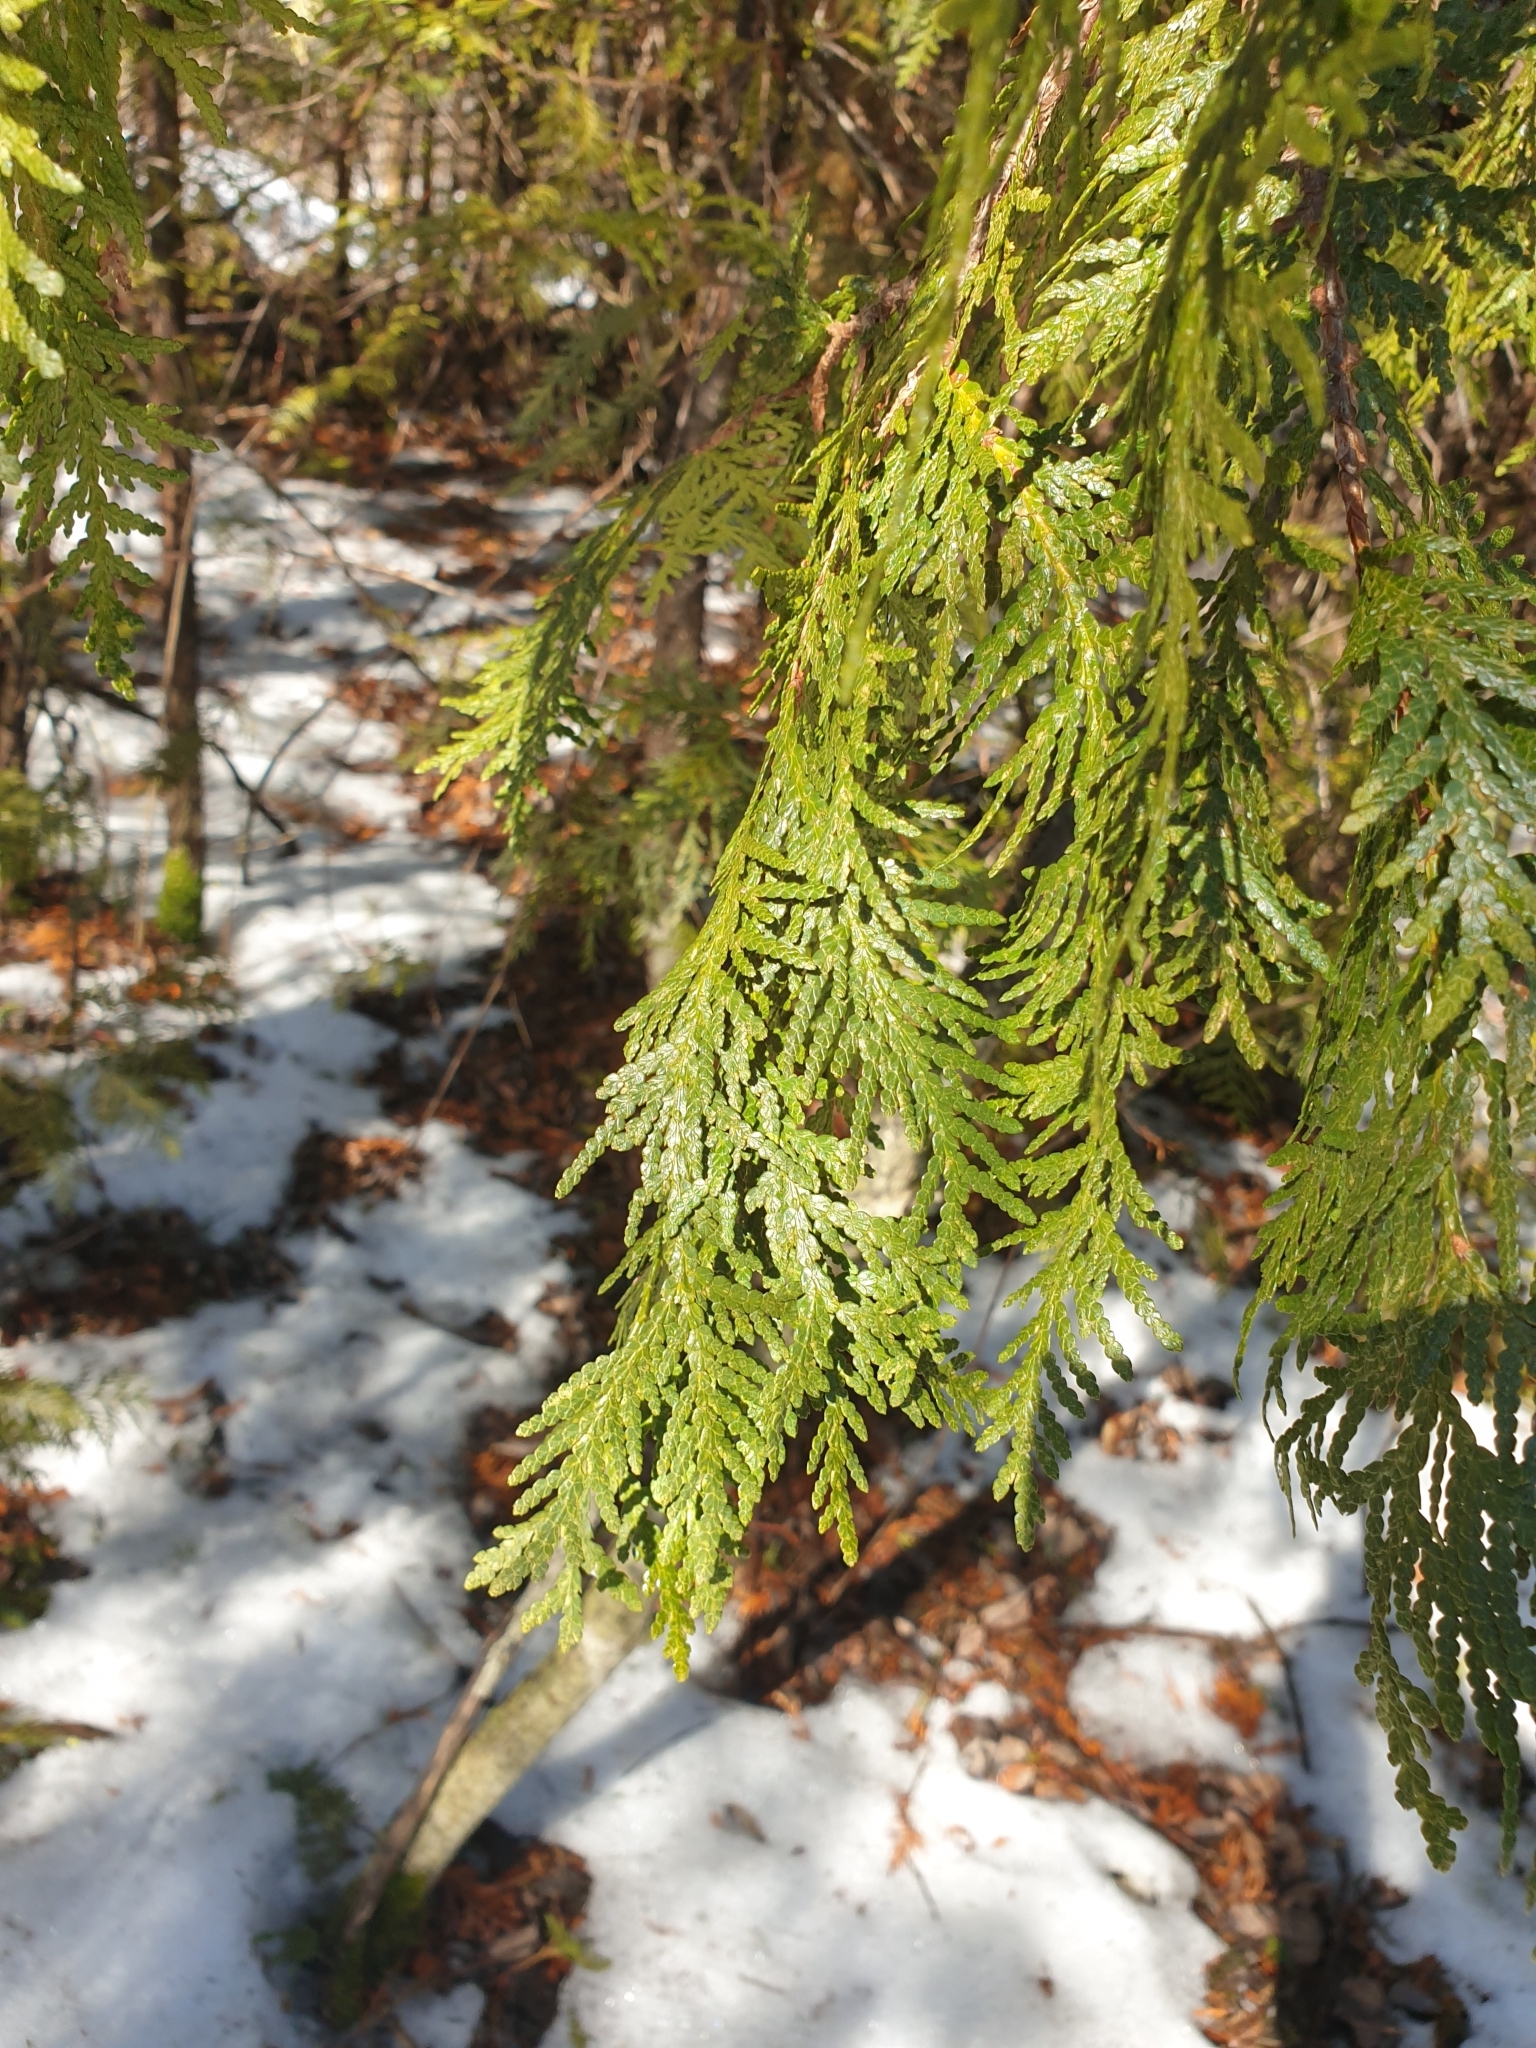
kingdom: Plantae
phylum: Tracheophyta
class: Pinopsida
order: Pinales
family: Cupressaceae
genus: Thuja
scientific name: Thuja occidentalis
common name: Northern white-cedar
